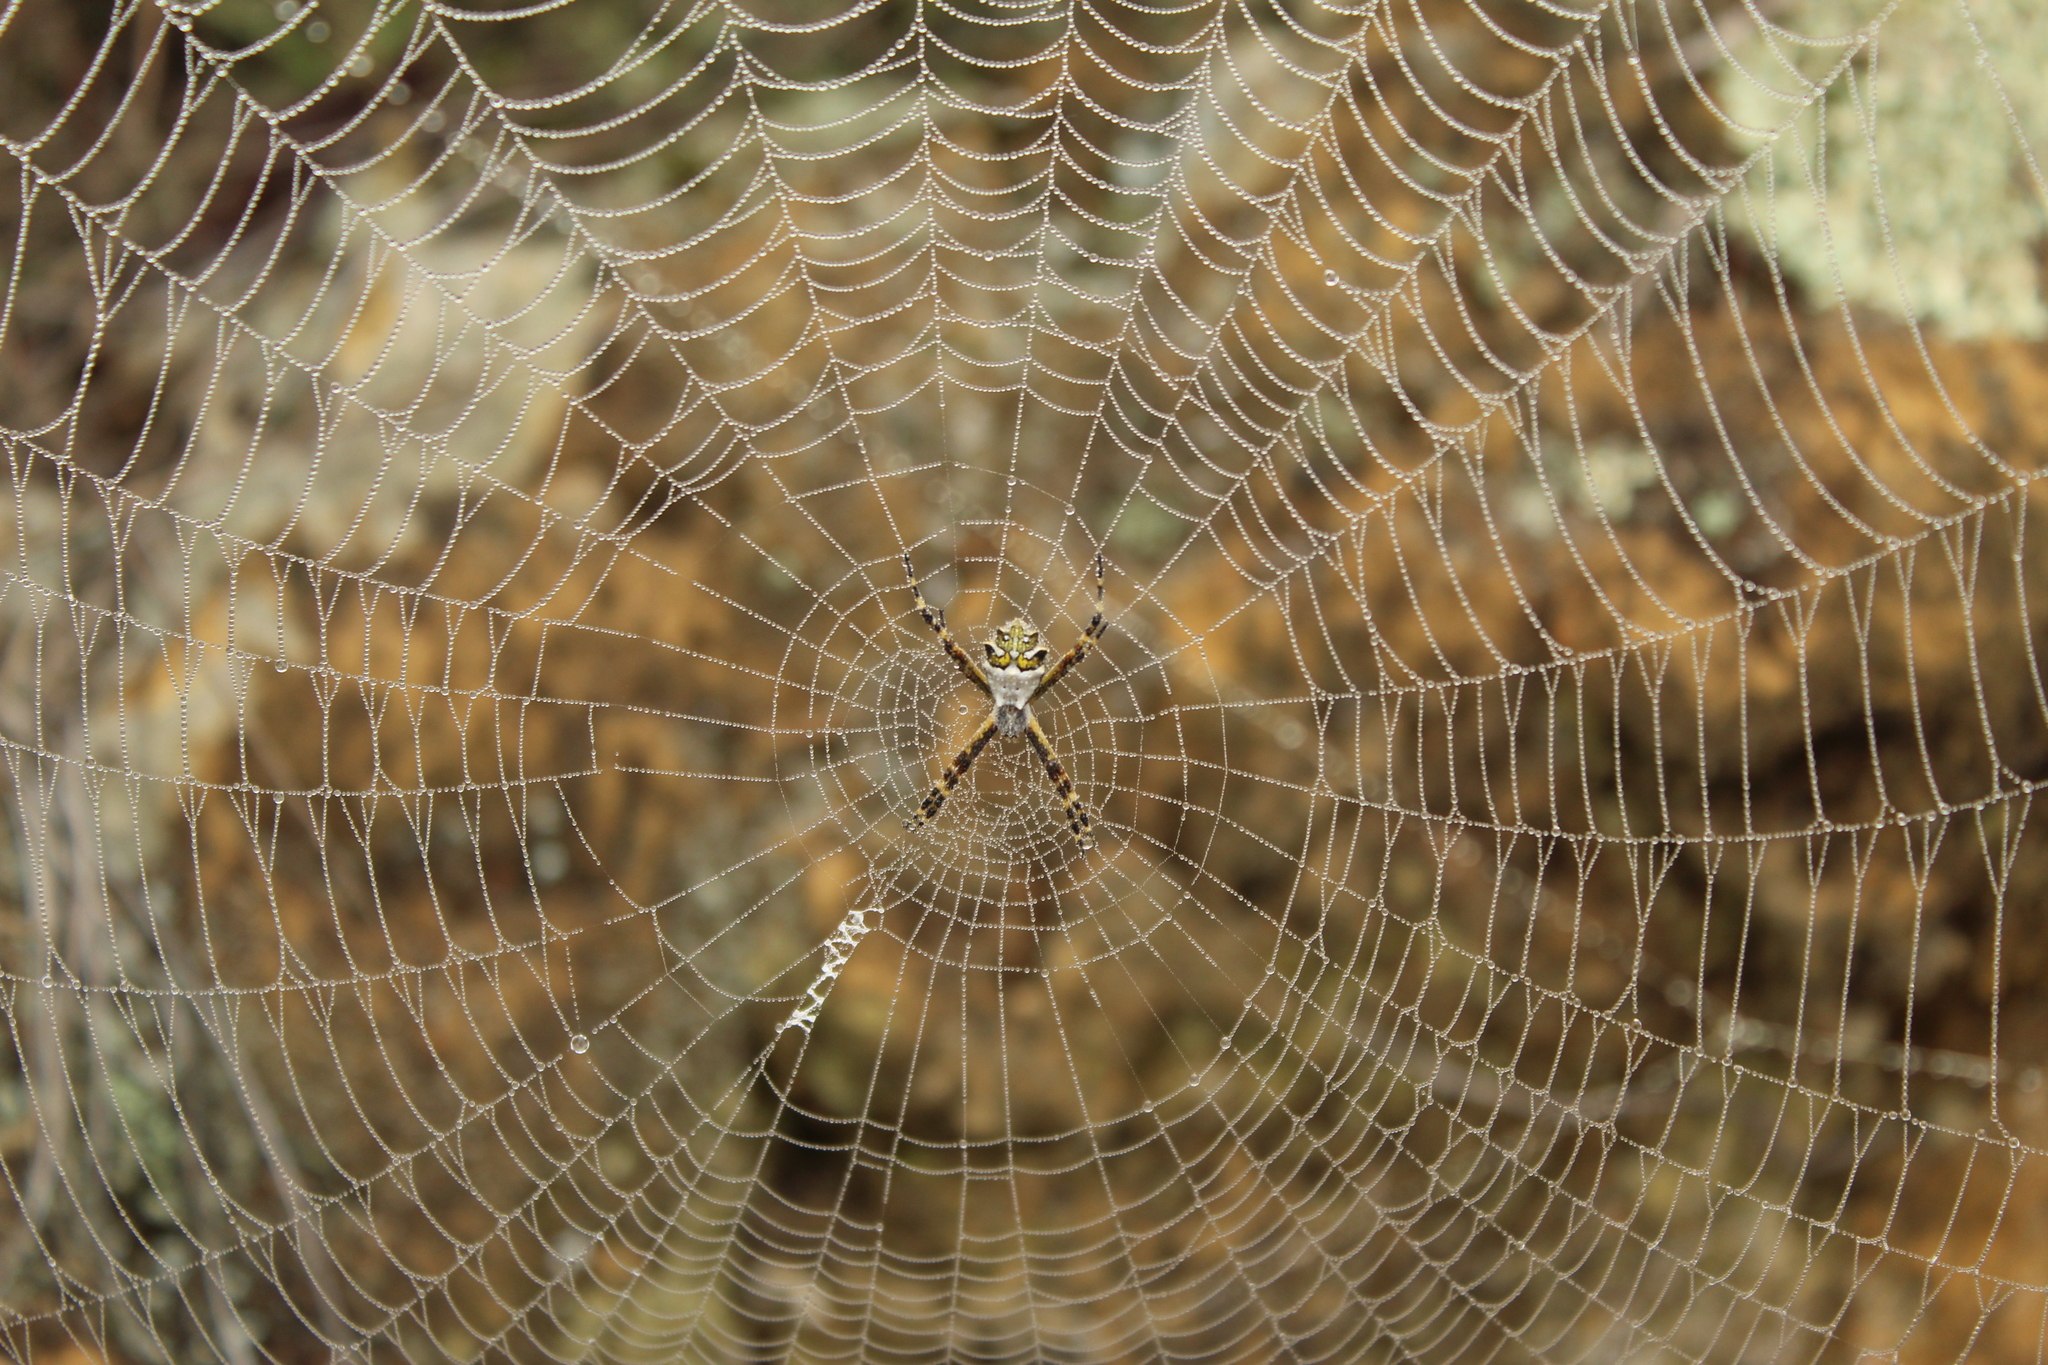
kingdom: Animalia
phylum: Arthropoda
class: Arachnida
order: Araneae
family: Araneidae
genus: Argiope
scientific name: Argiope argentata
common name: Orb weavers
